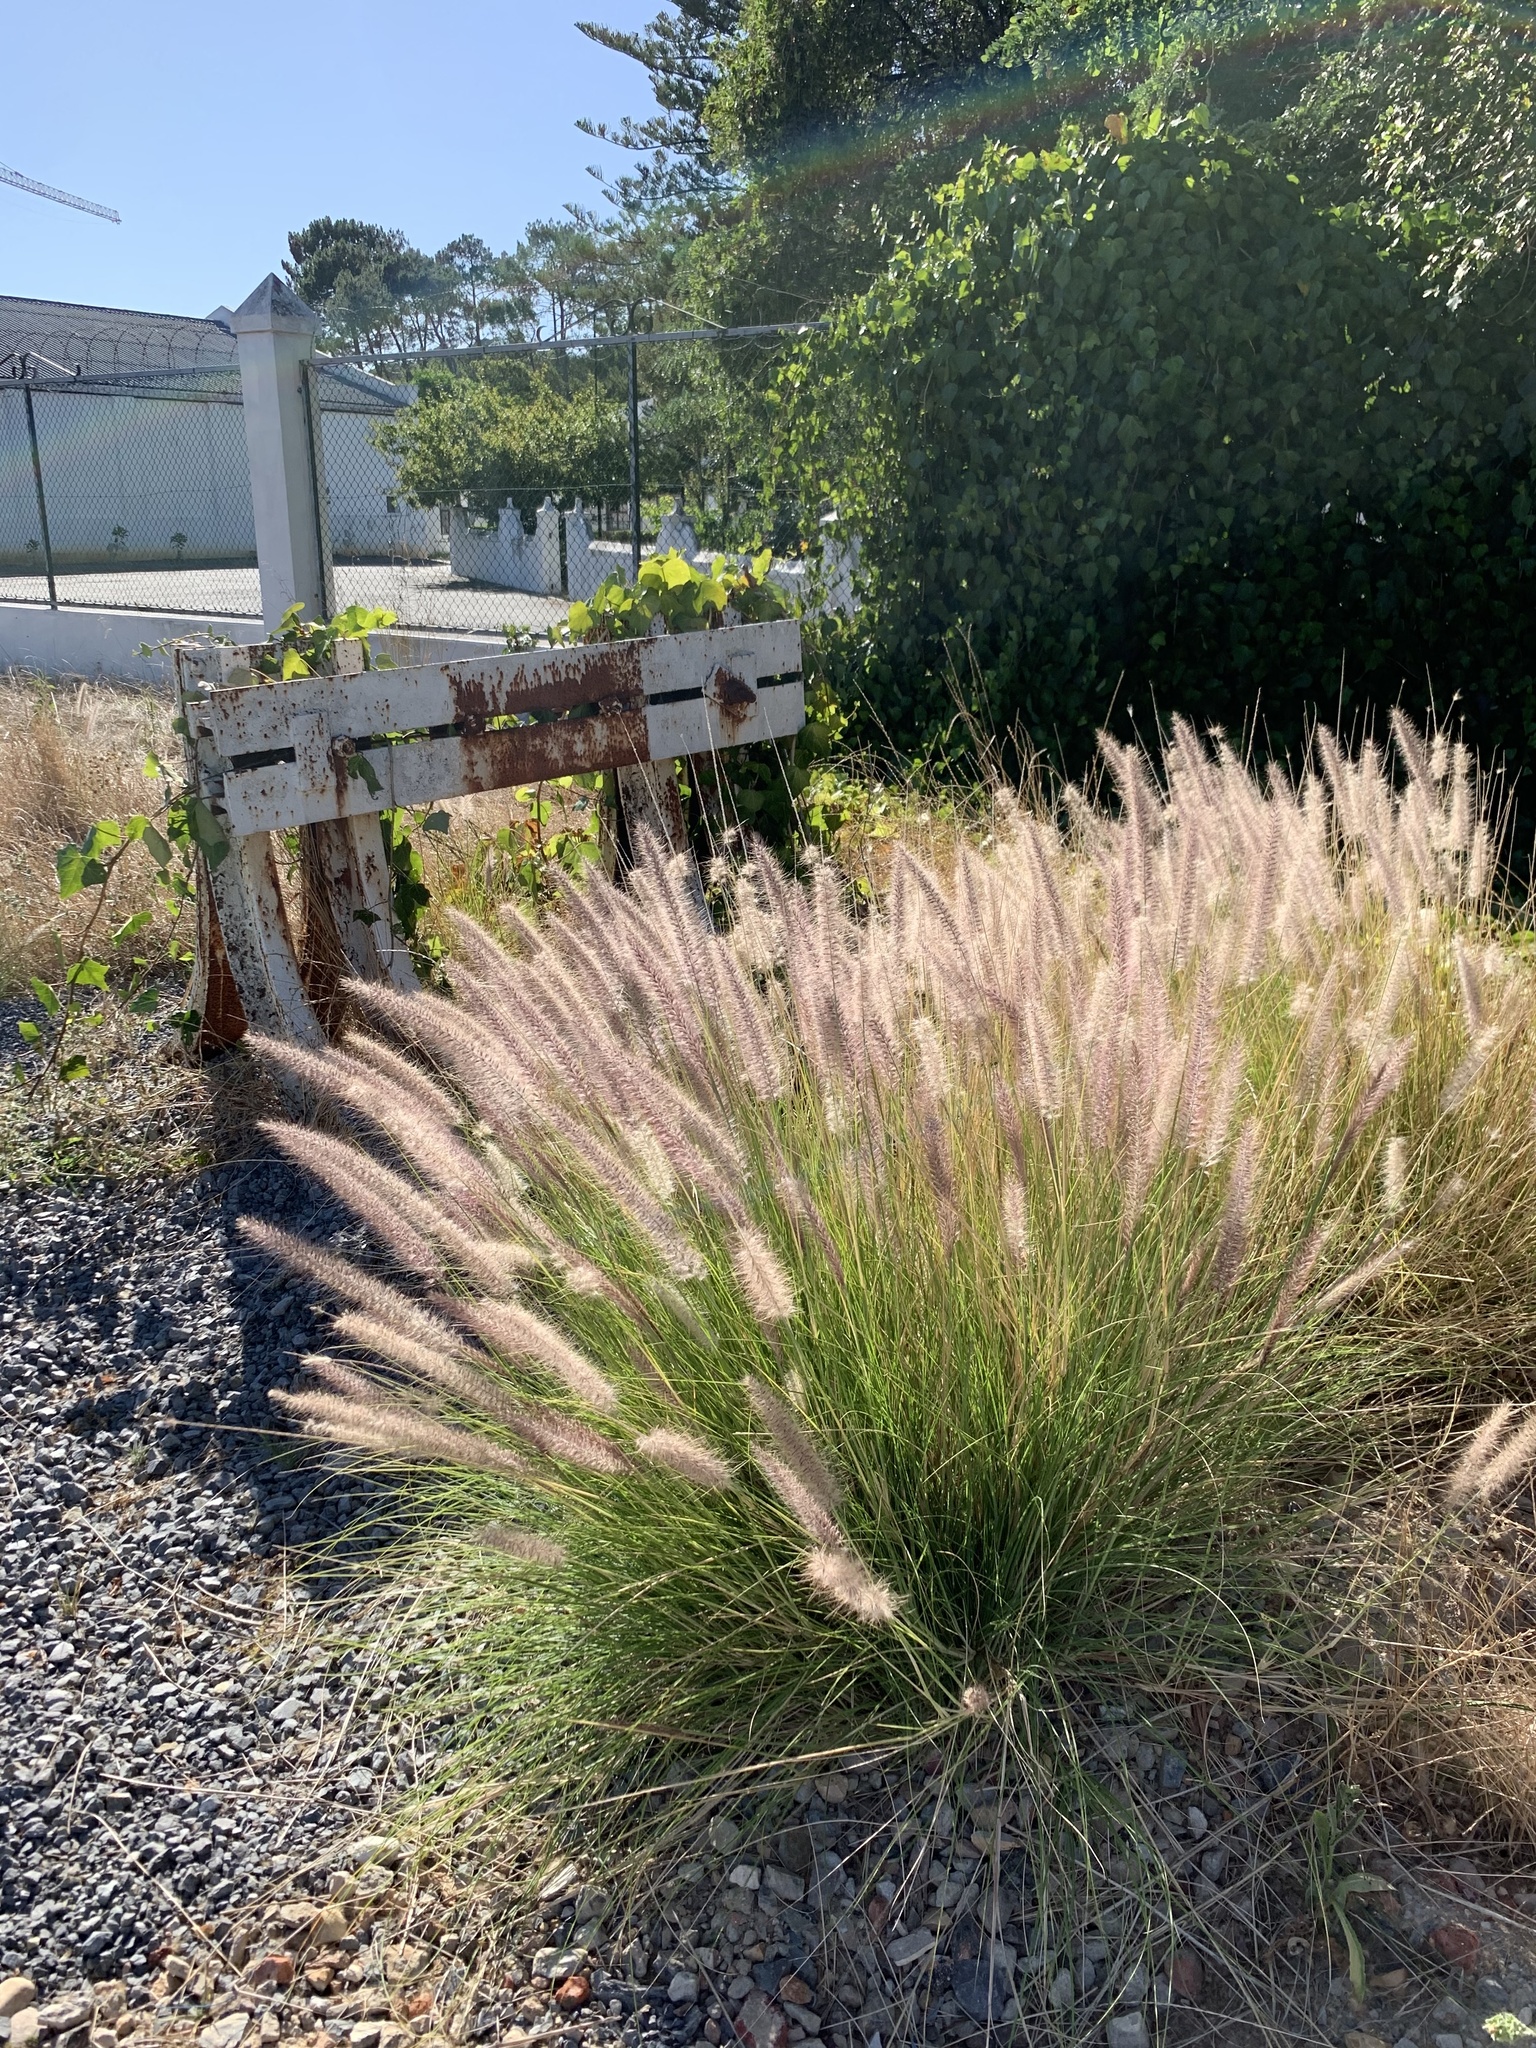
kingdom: Plantae
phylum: Tracheophyta
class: Liliopsida
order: Poales
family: Poaceae
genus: Cenchrus
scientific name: Cenchrus setaceus
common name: Crimson fountaingrass
